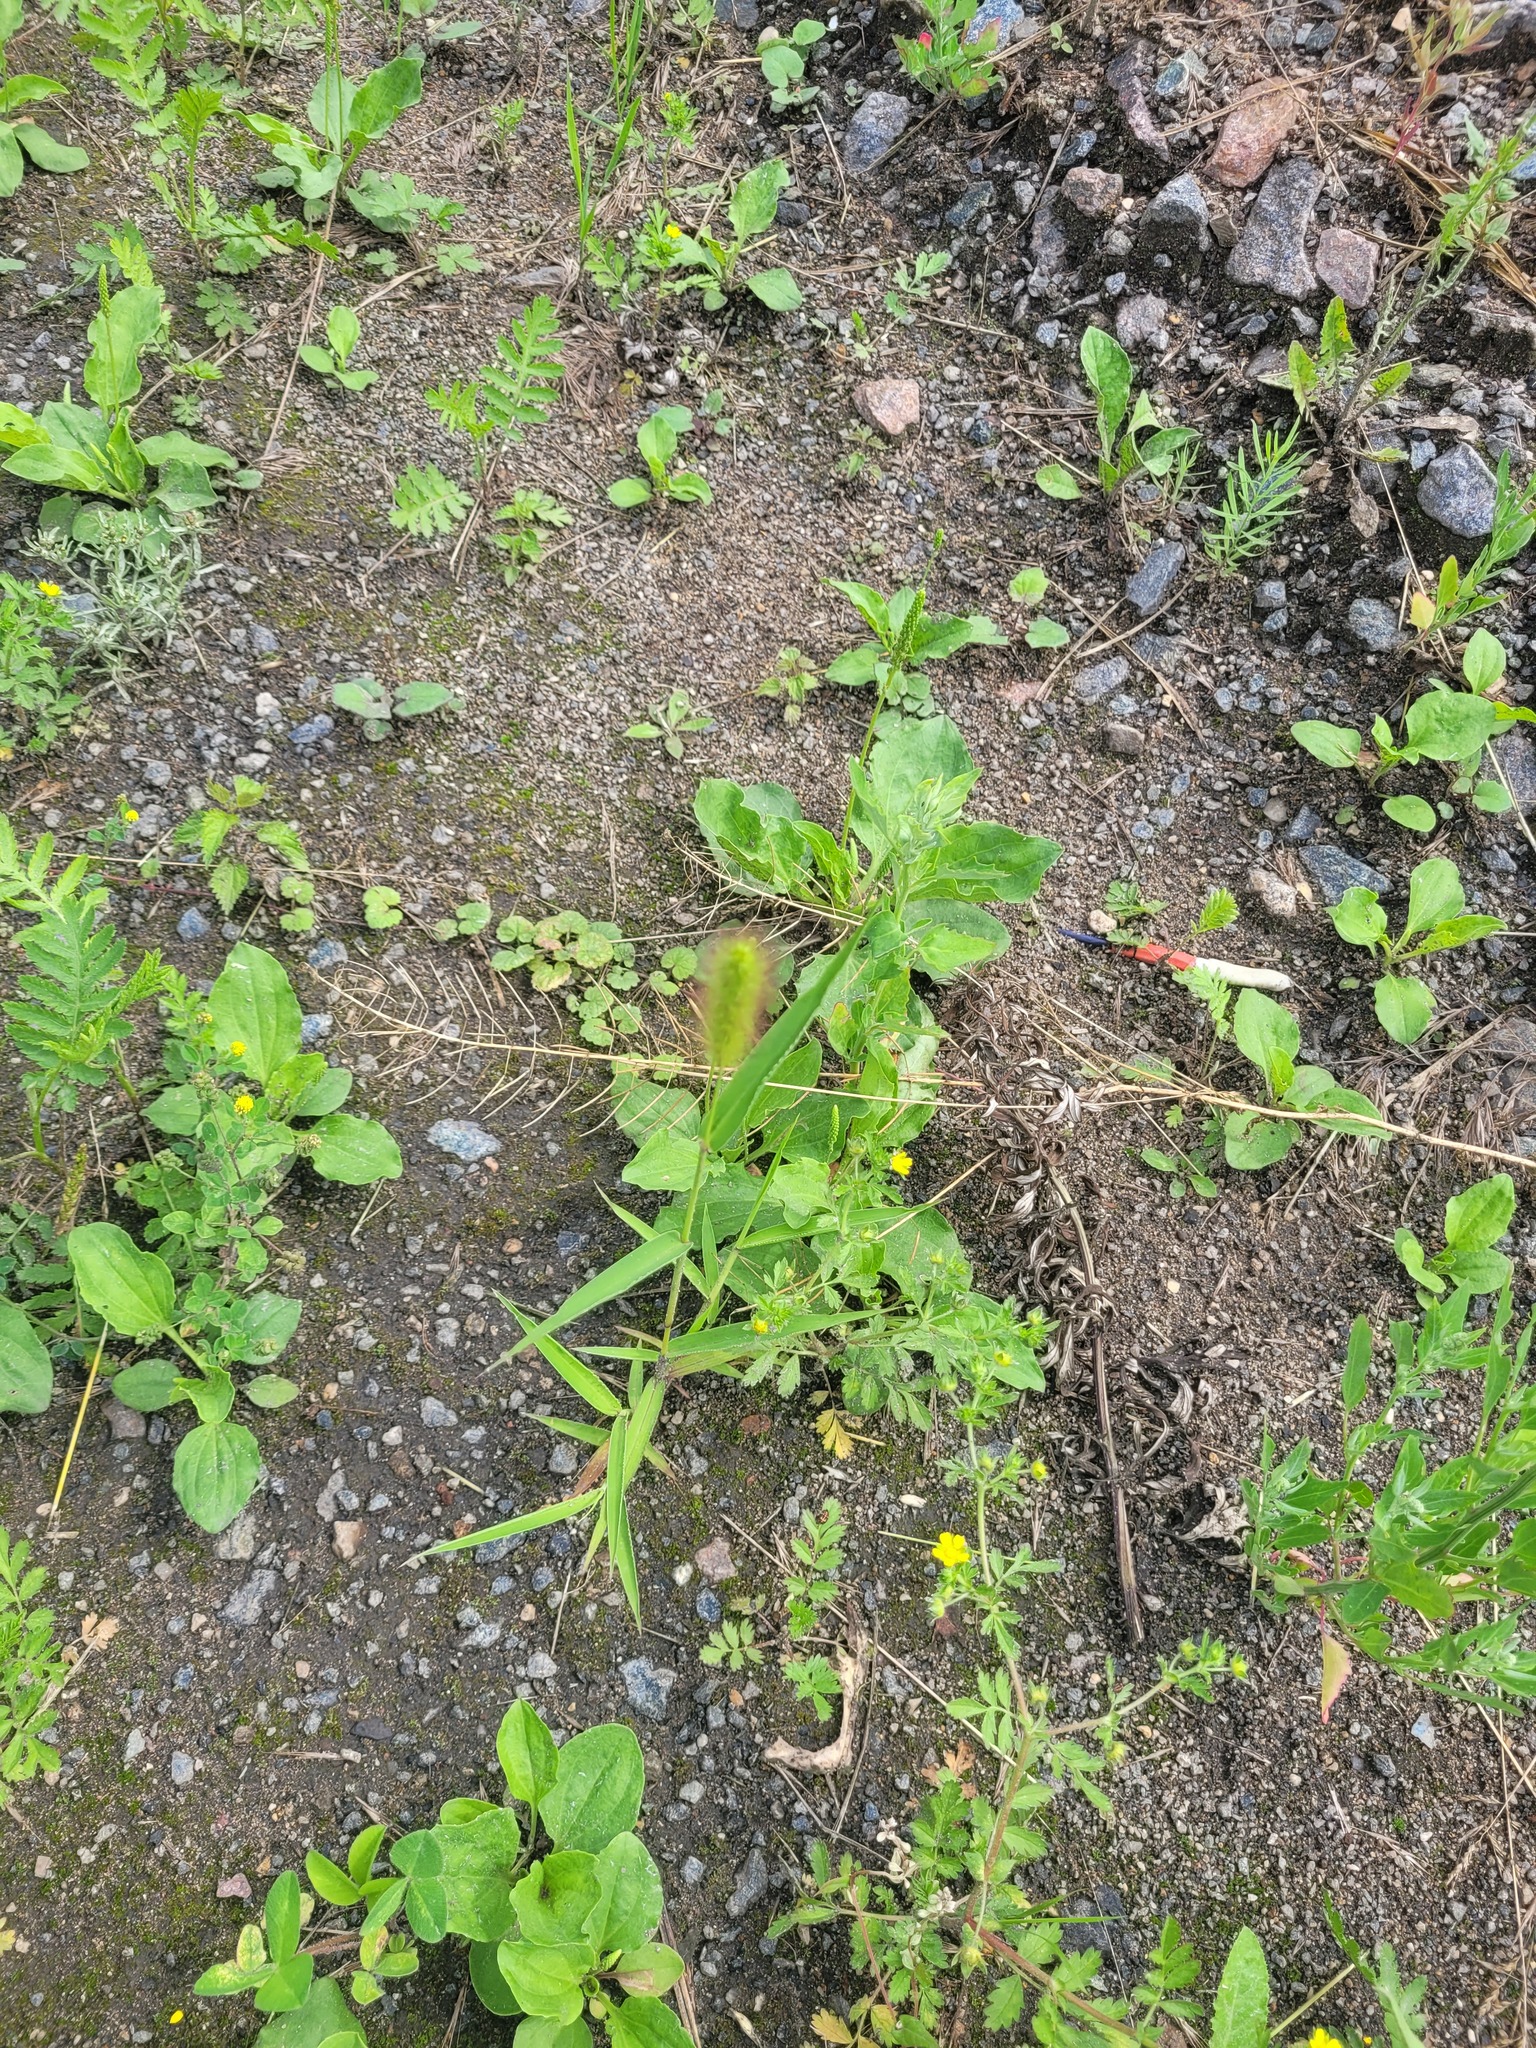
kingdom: Plantae
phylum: Tracheophyta
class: Liliopsida
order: Poales
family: Poaceae
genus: Setaria
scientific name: Setaria viridis
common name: Green bristlegrass
